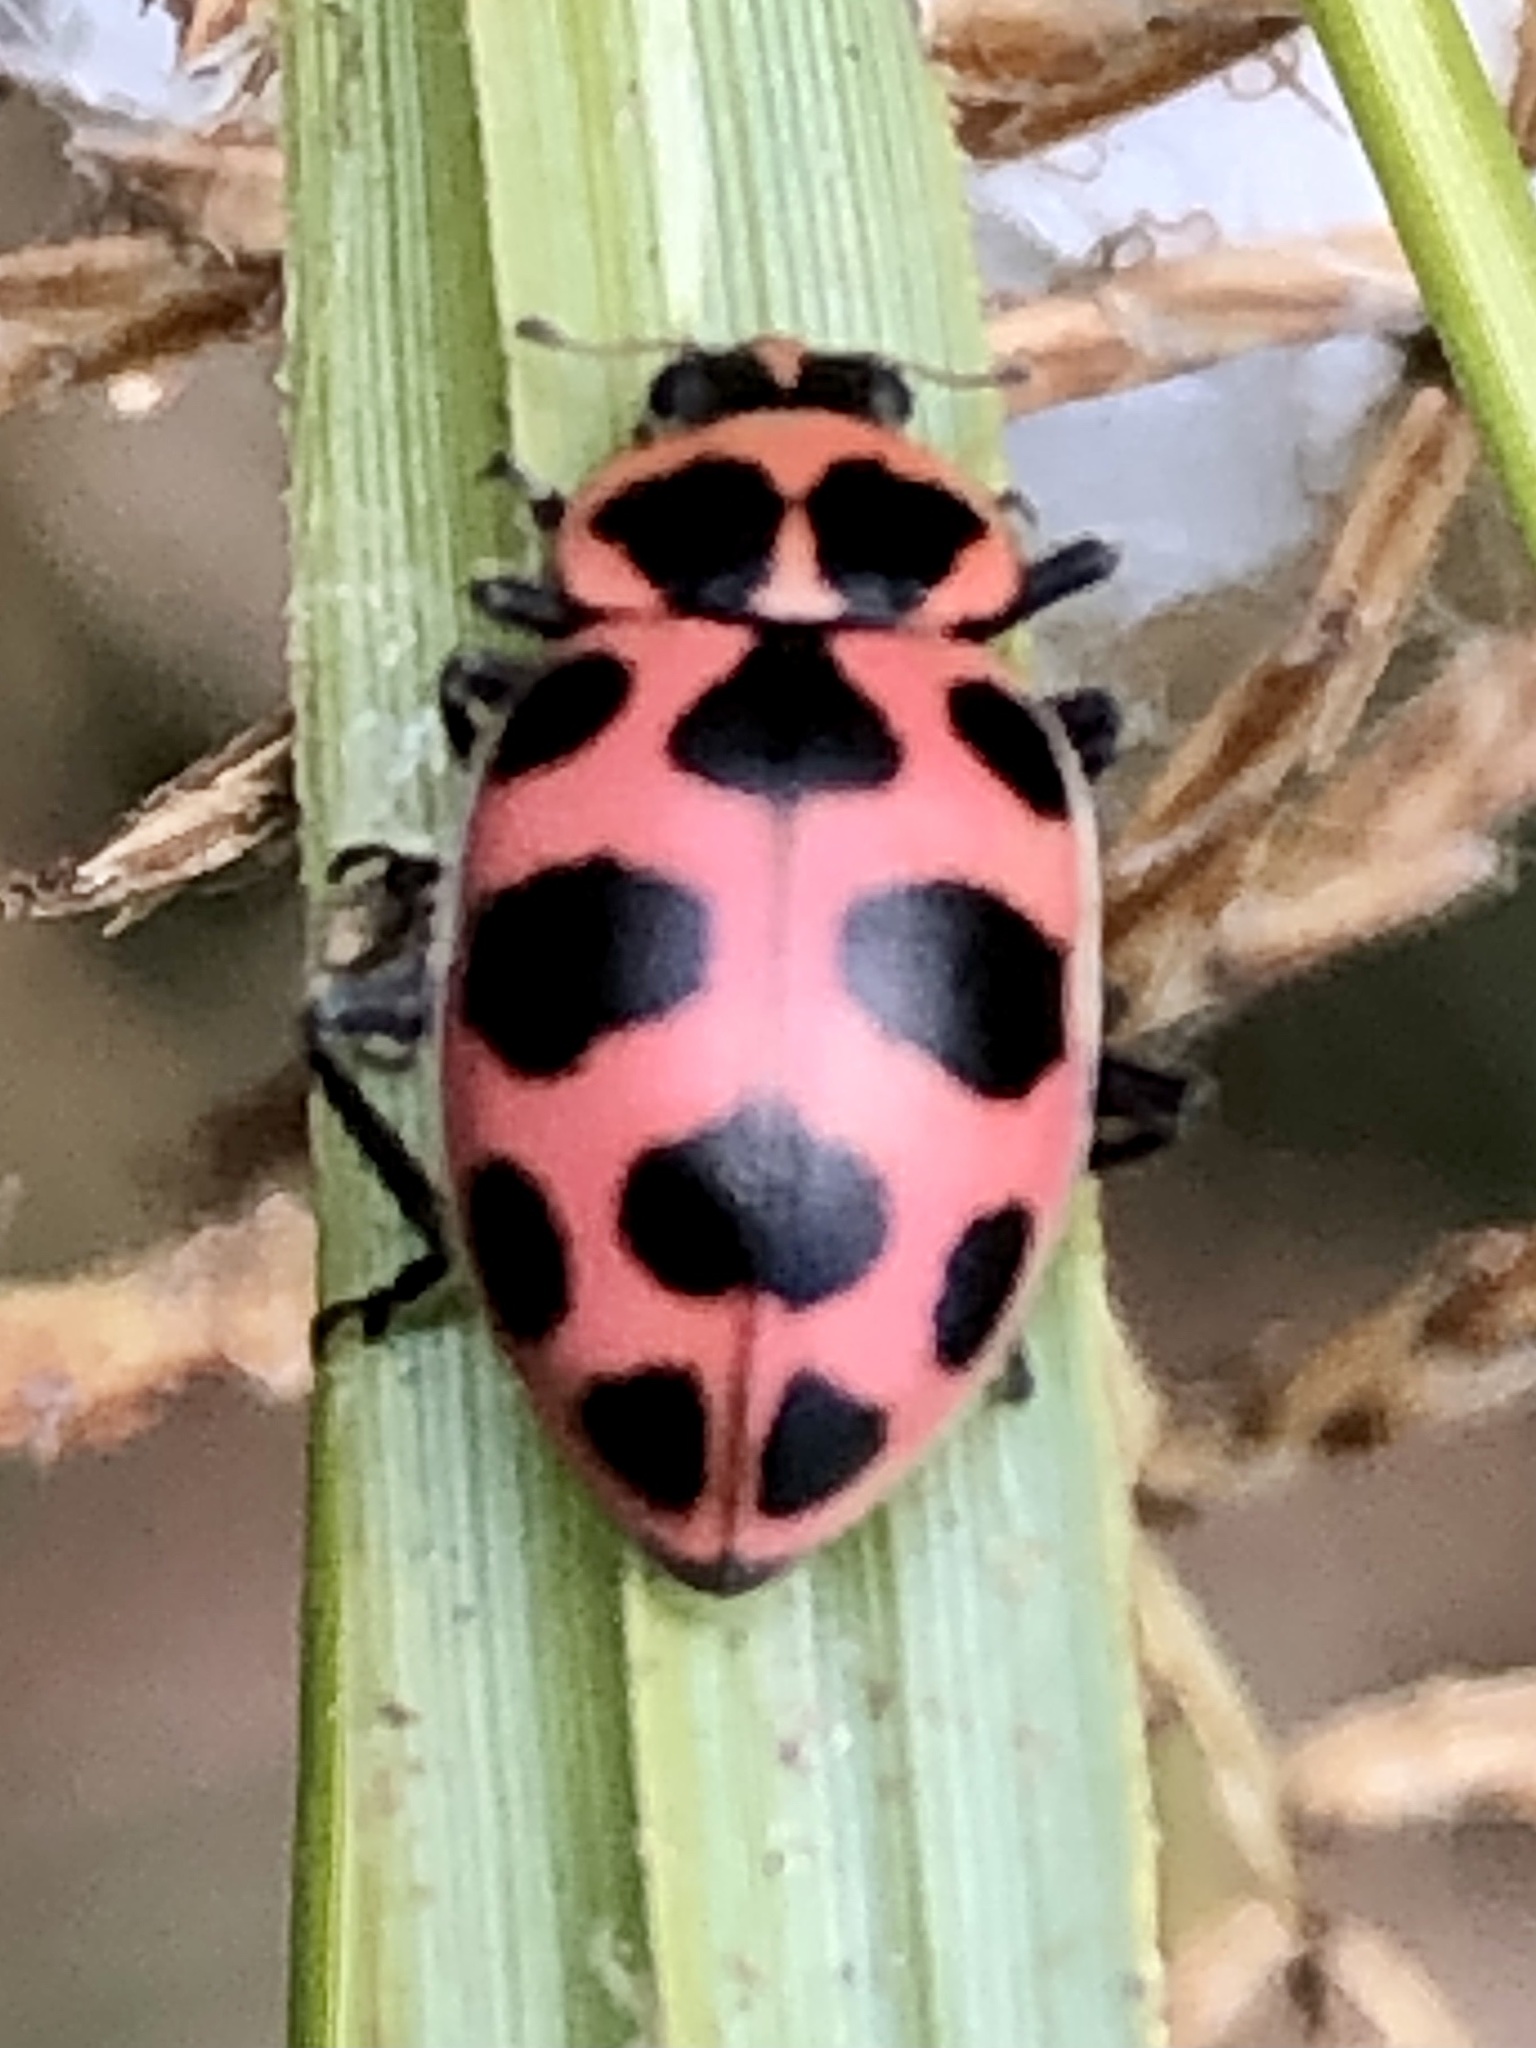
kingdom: Animalia
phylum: Arthropoda
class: Insecta
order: Coleoptera
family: Coccinellidae
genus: Coleomegilla
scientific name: Coleomegilla maculata
